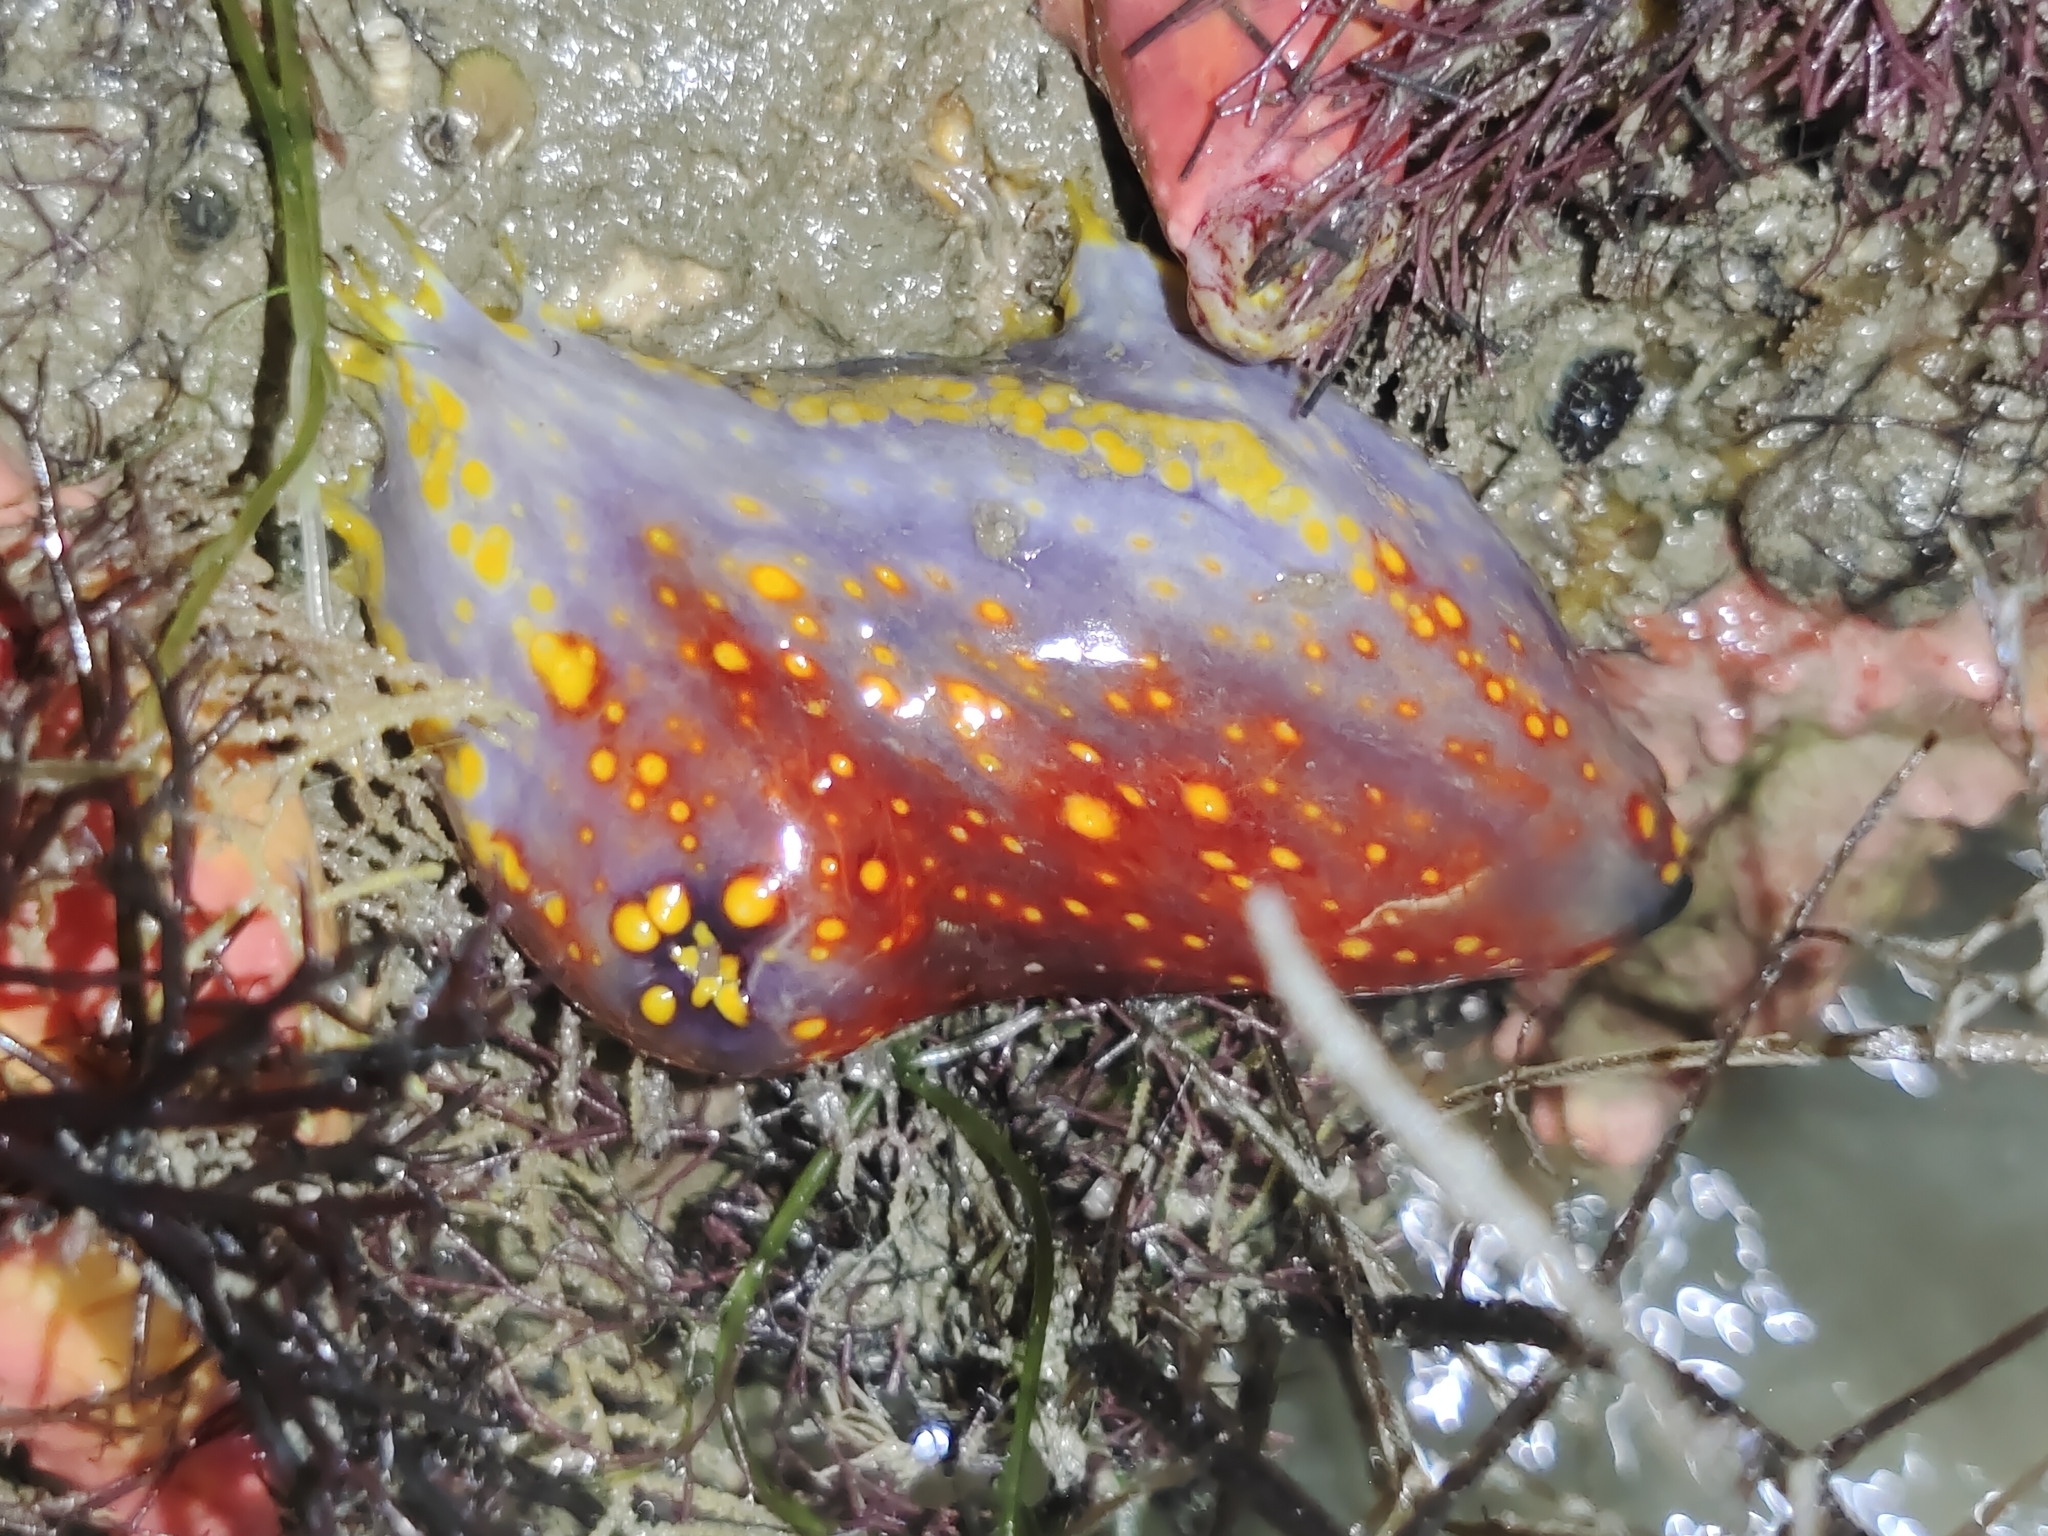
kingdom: Animalia
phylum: Echinodermata
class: Holothuroidea
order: Dendrochirotida
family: Cucumariidae
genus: Pseudocolochirus
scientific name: Pseudocolochirus violaceus
